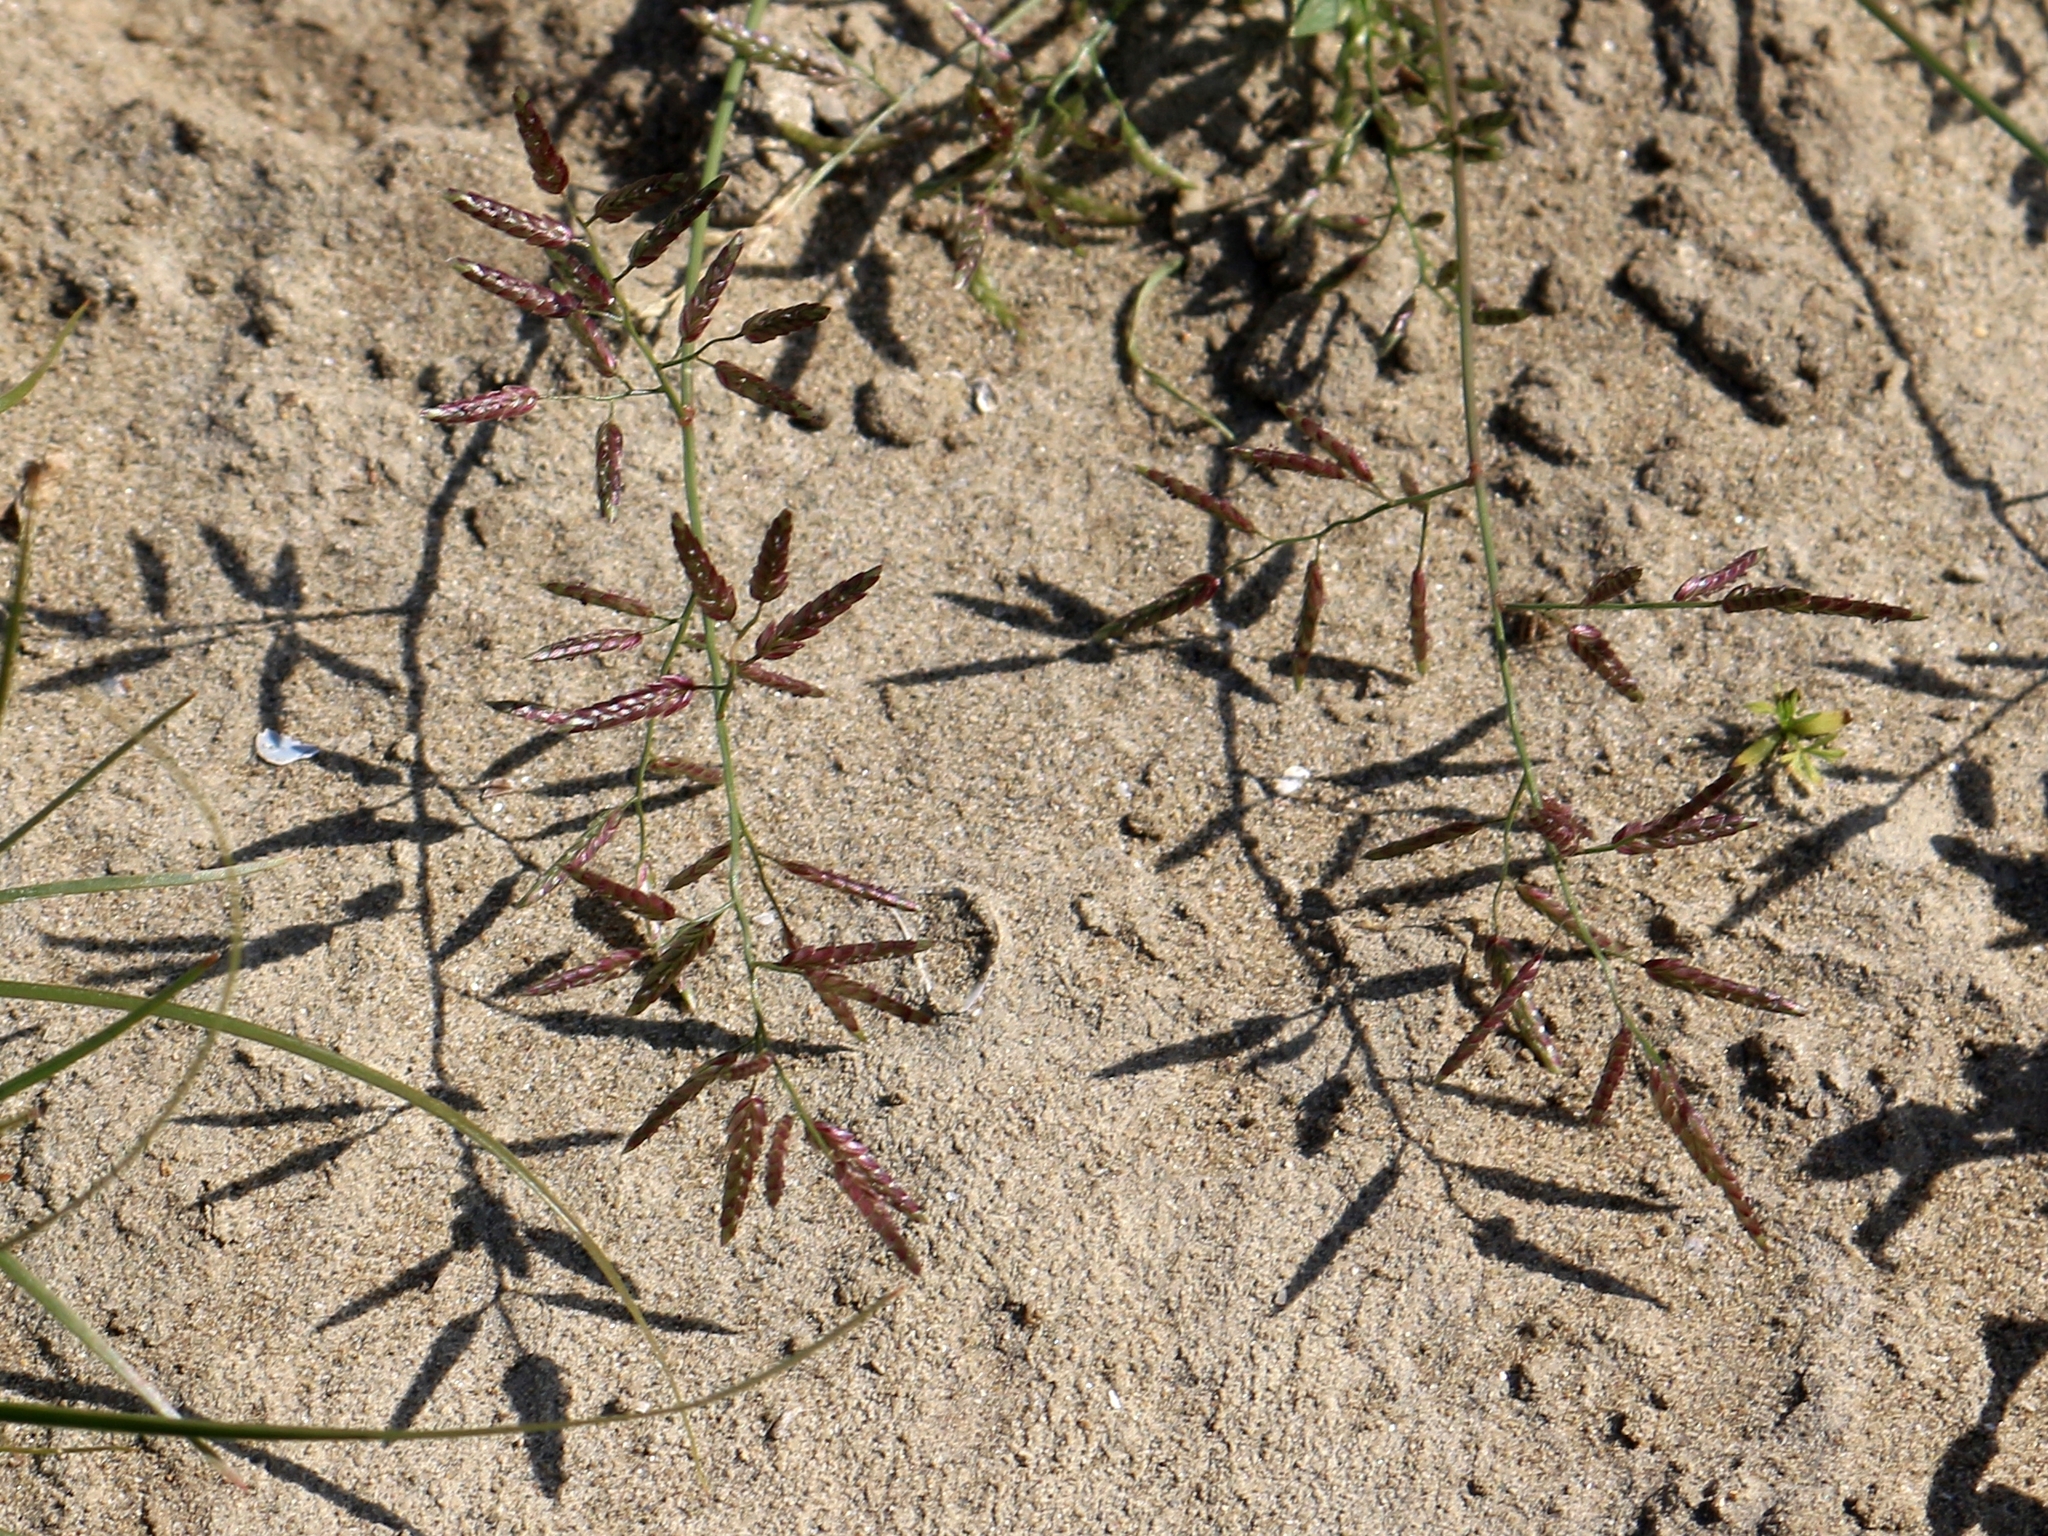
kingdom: Plantae
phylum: Tracheophyta
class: Liliopsida
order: Poales
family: Poaceae
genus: Eragrostis
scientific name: Eragrostis minor
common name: Small love-grass
